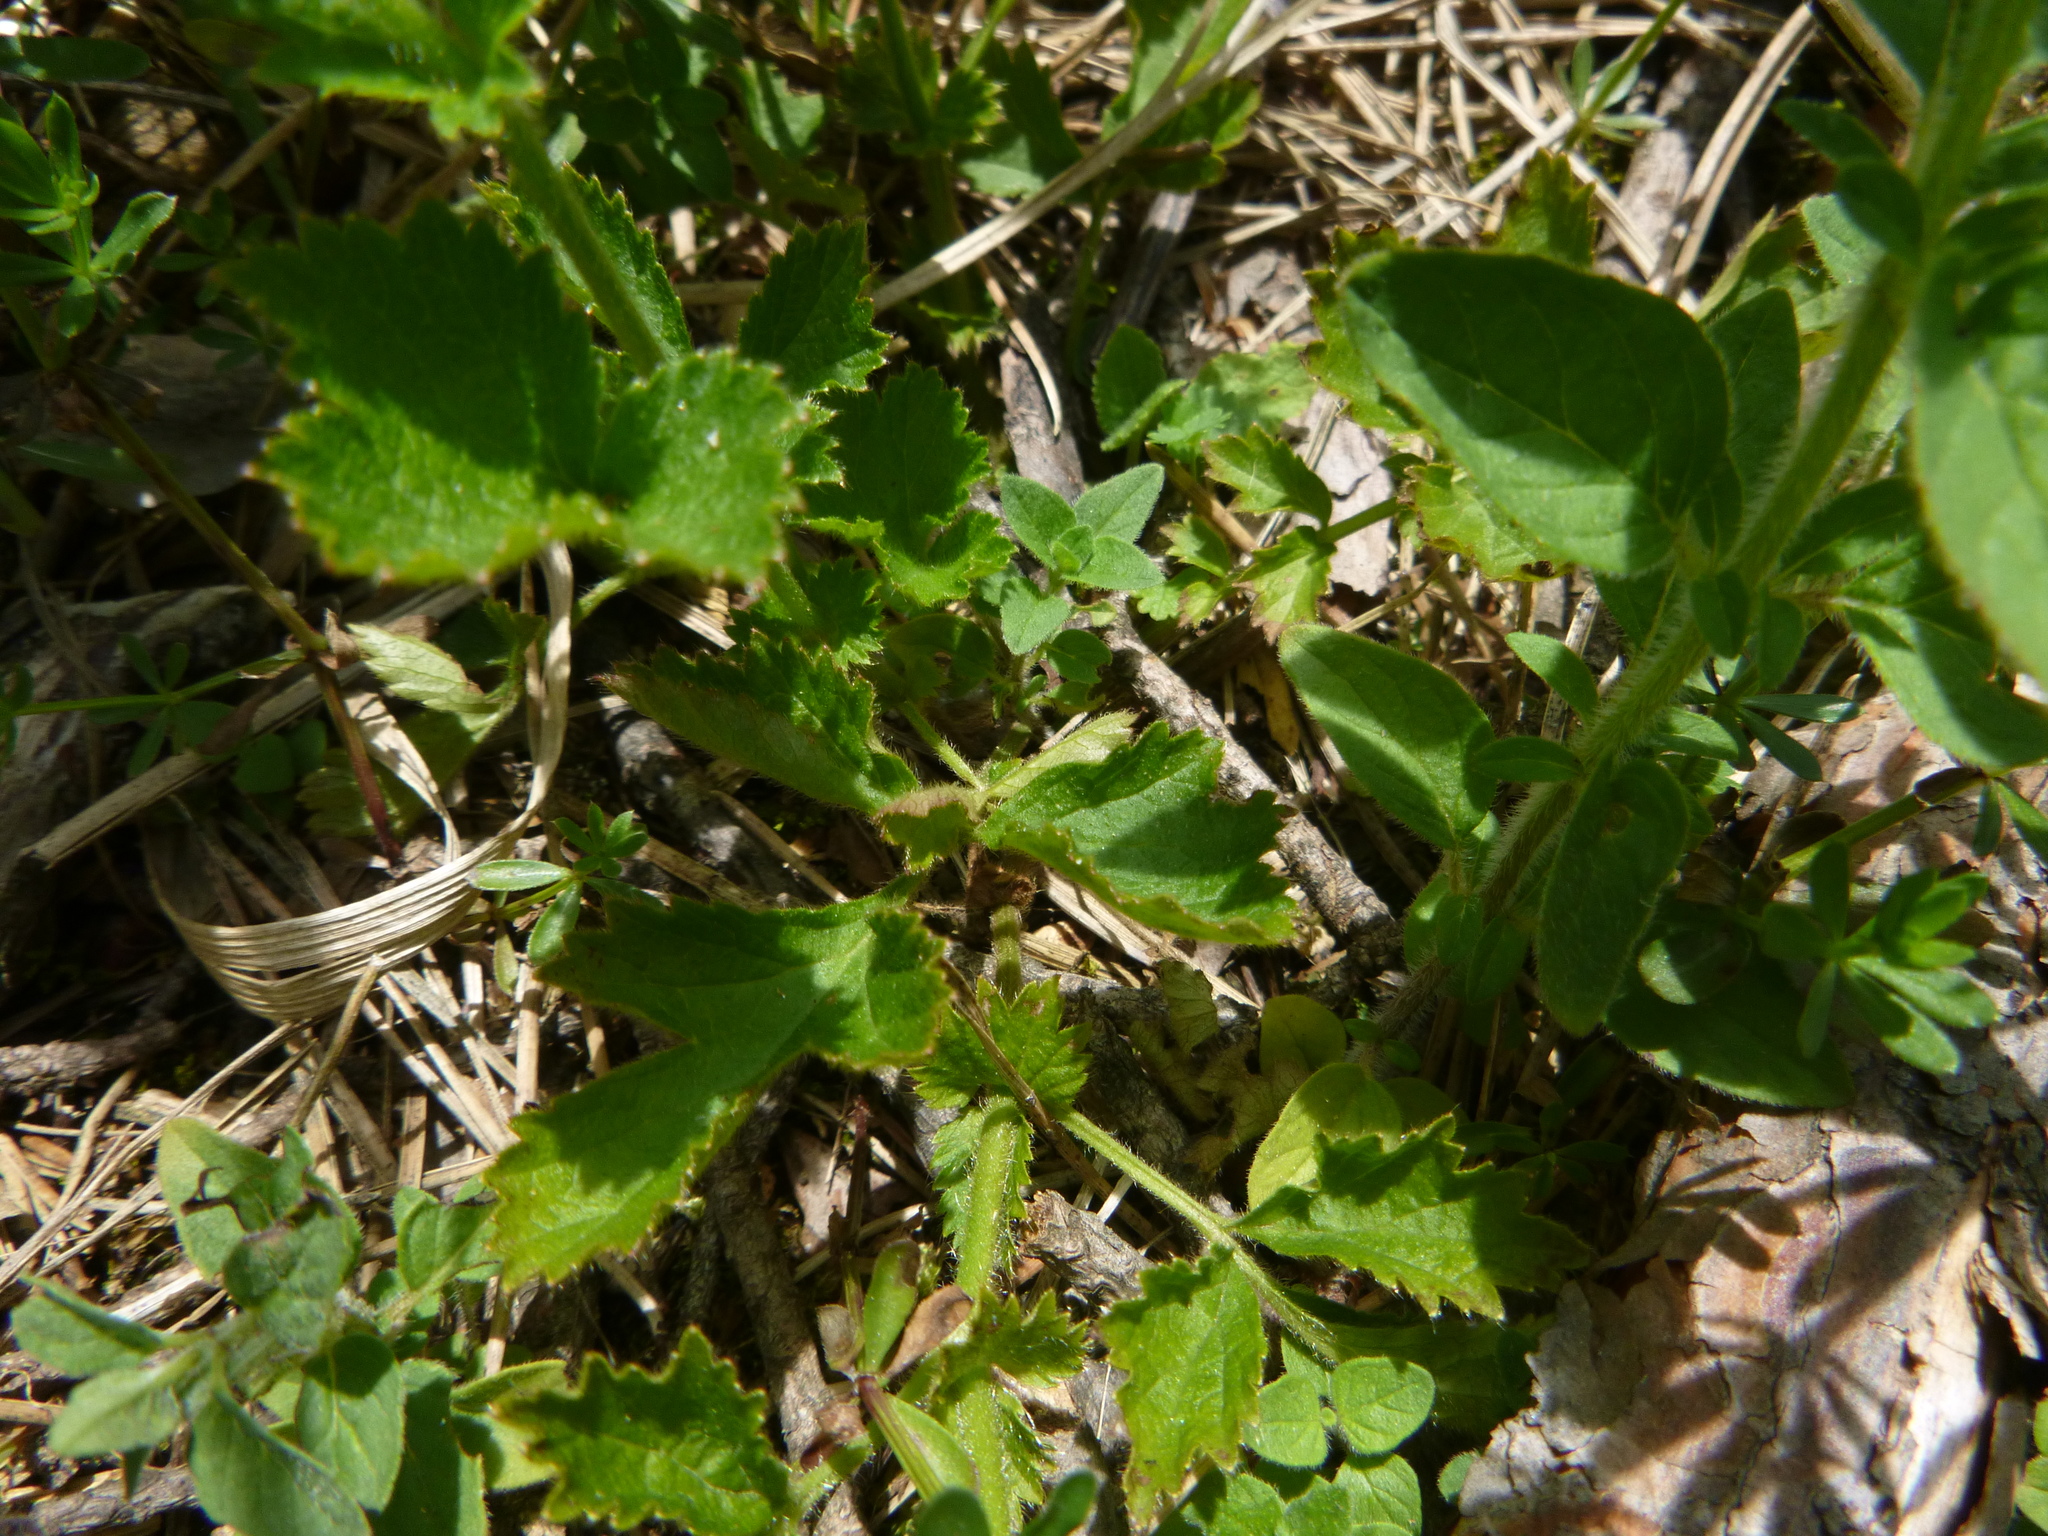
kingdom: Plantae
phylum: Tracheophyta
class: Magnoliopsida
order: Rosales
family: Rosaceae
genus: Geum
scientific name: Geum urbanum
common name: Wood avens
